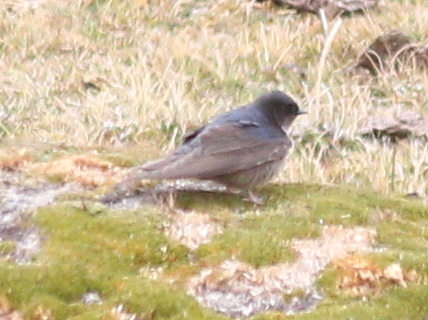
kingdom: Animalia
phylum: Chordata
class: Aves
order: Passeriformes
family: Hirundinidae
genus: Notiochelidon
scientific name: Notiochelidon murina
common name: Brown-bellied swallow
